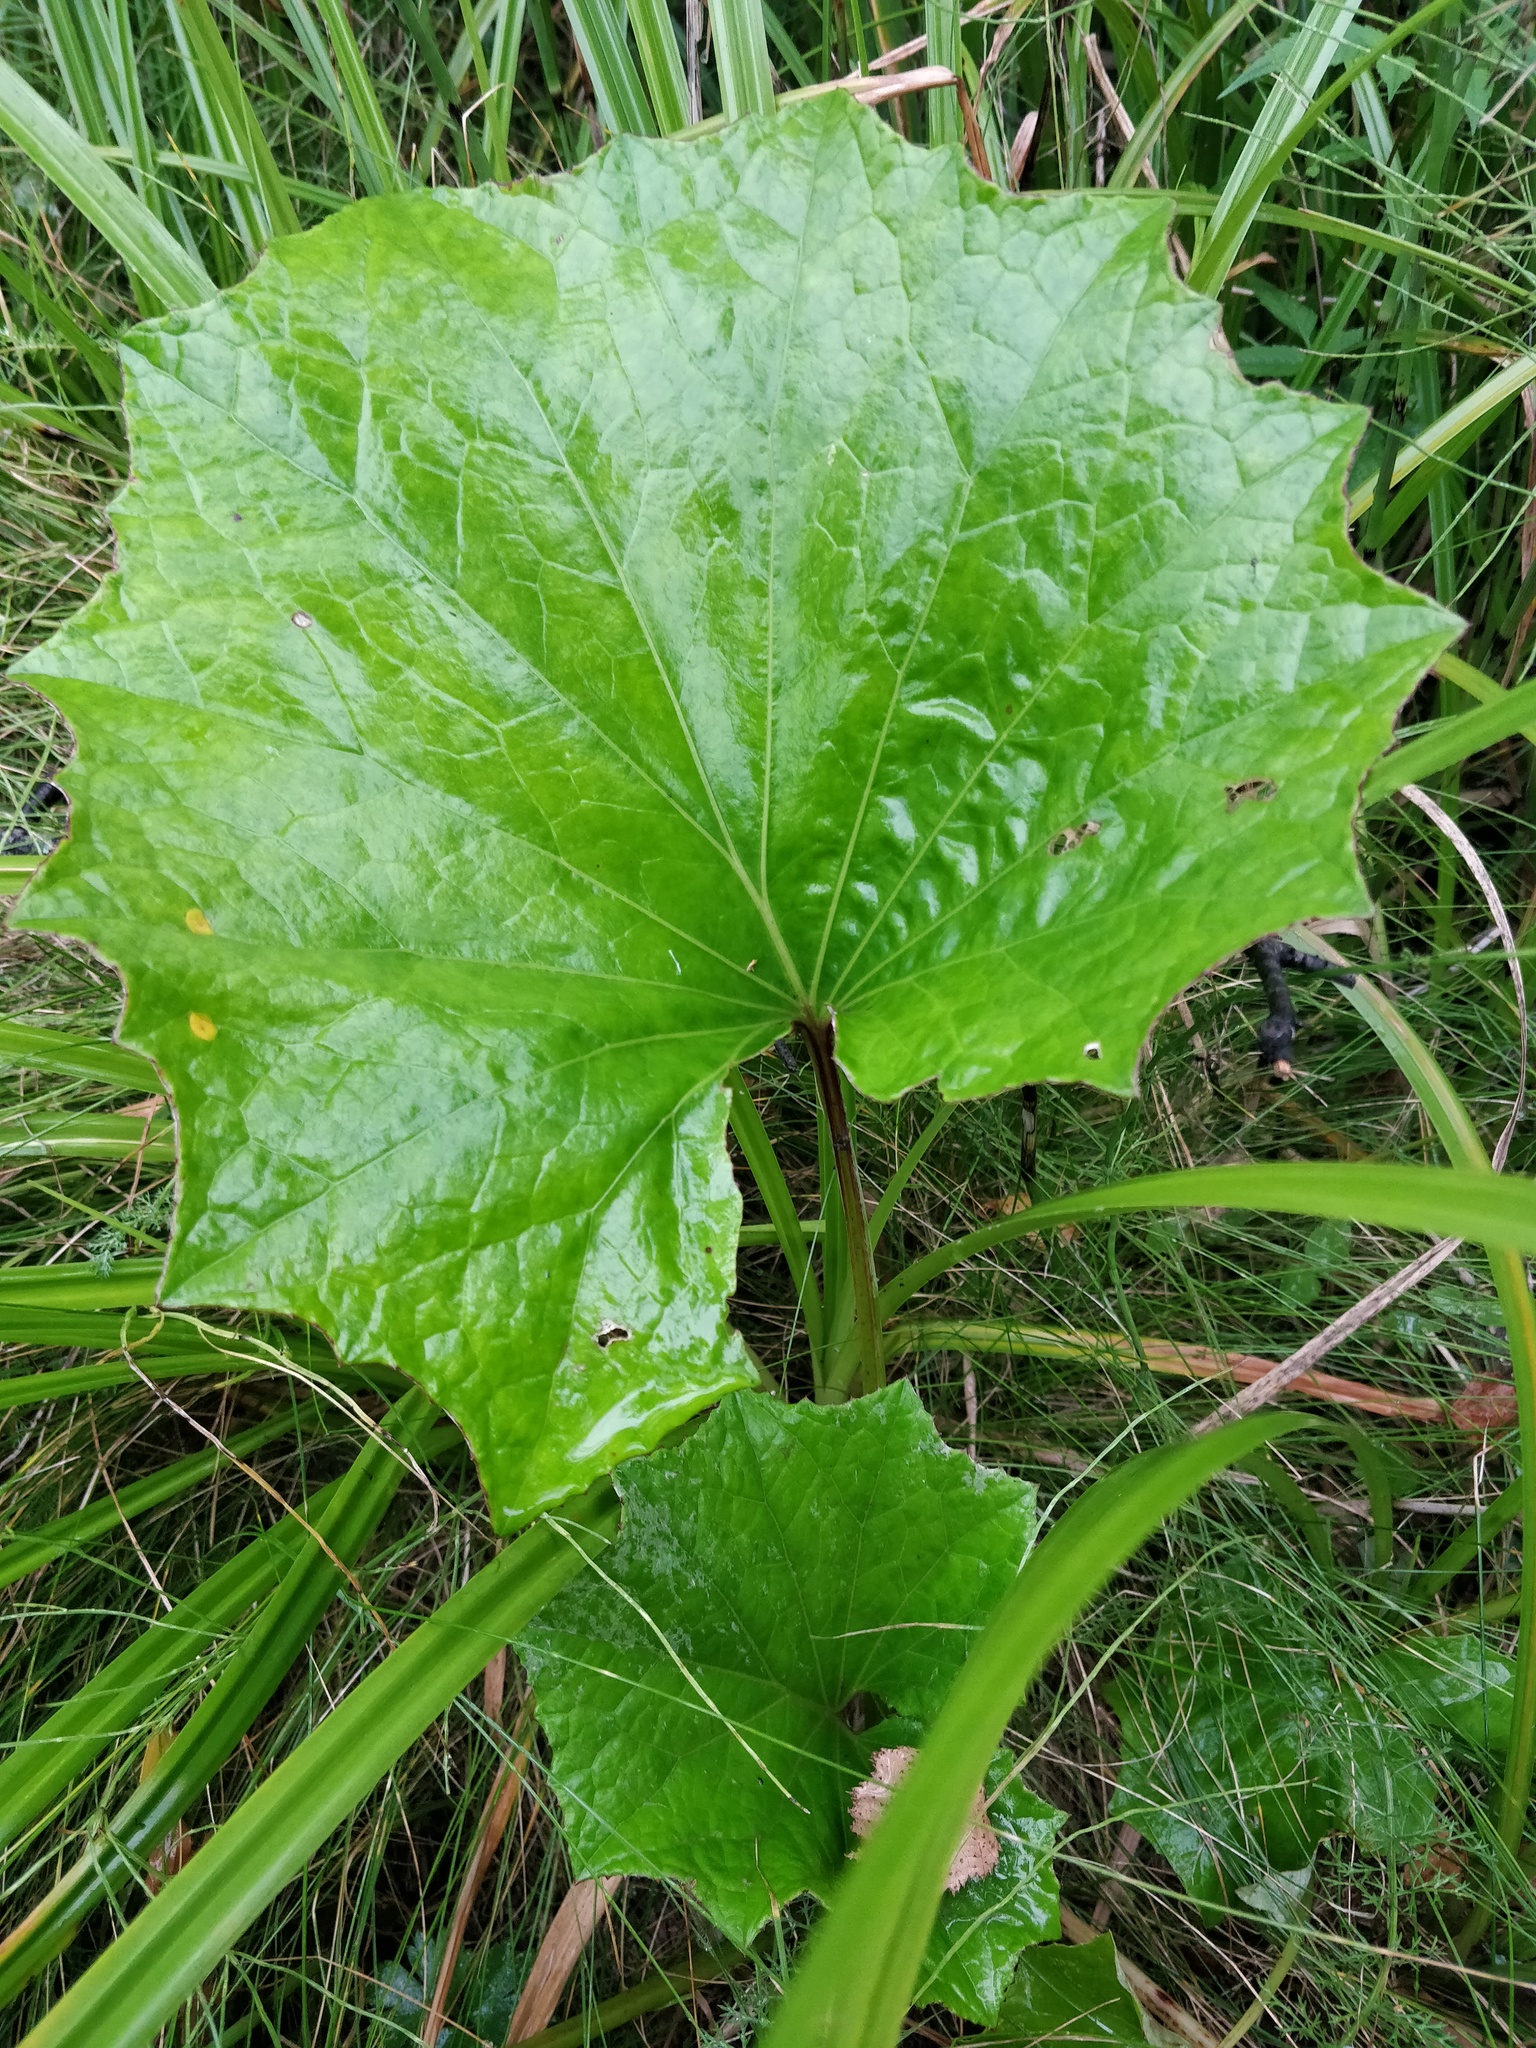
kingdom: Plantae
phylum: Tracheophyta
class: Magnoliopsida
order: Asterales
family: Asteraceae
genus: Tussilago
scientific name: Tussilago farfara
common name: Coltsfoot
